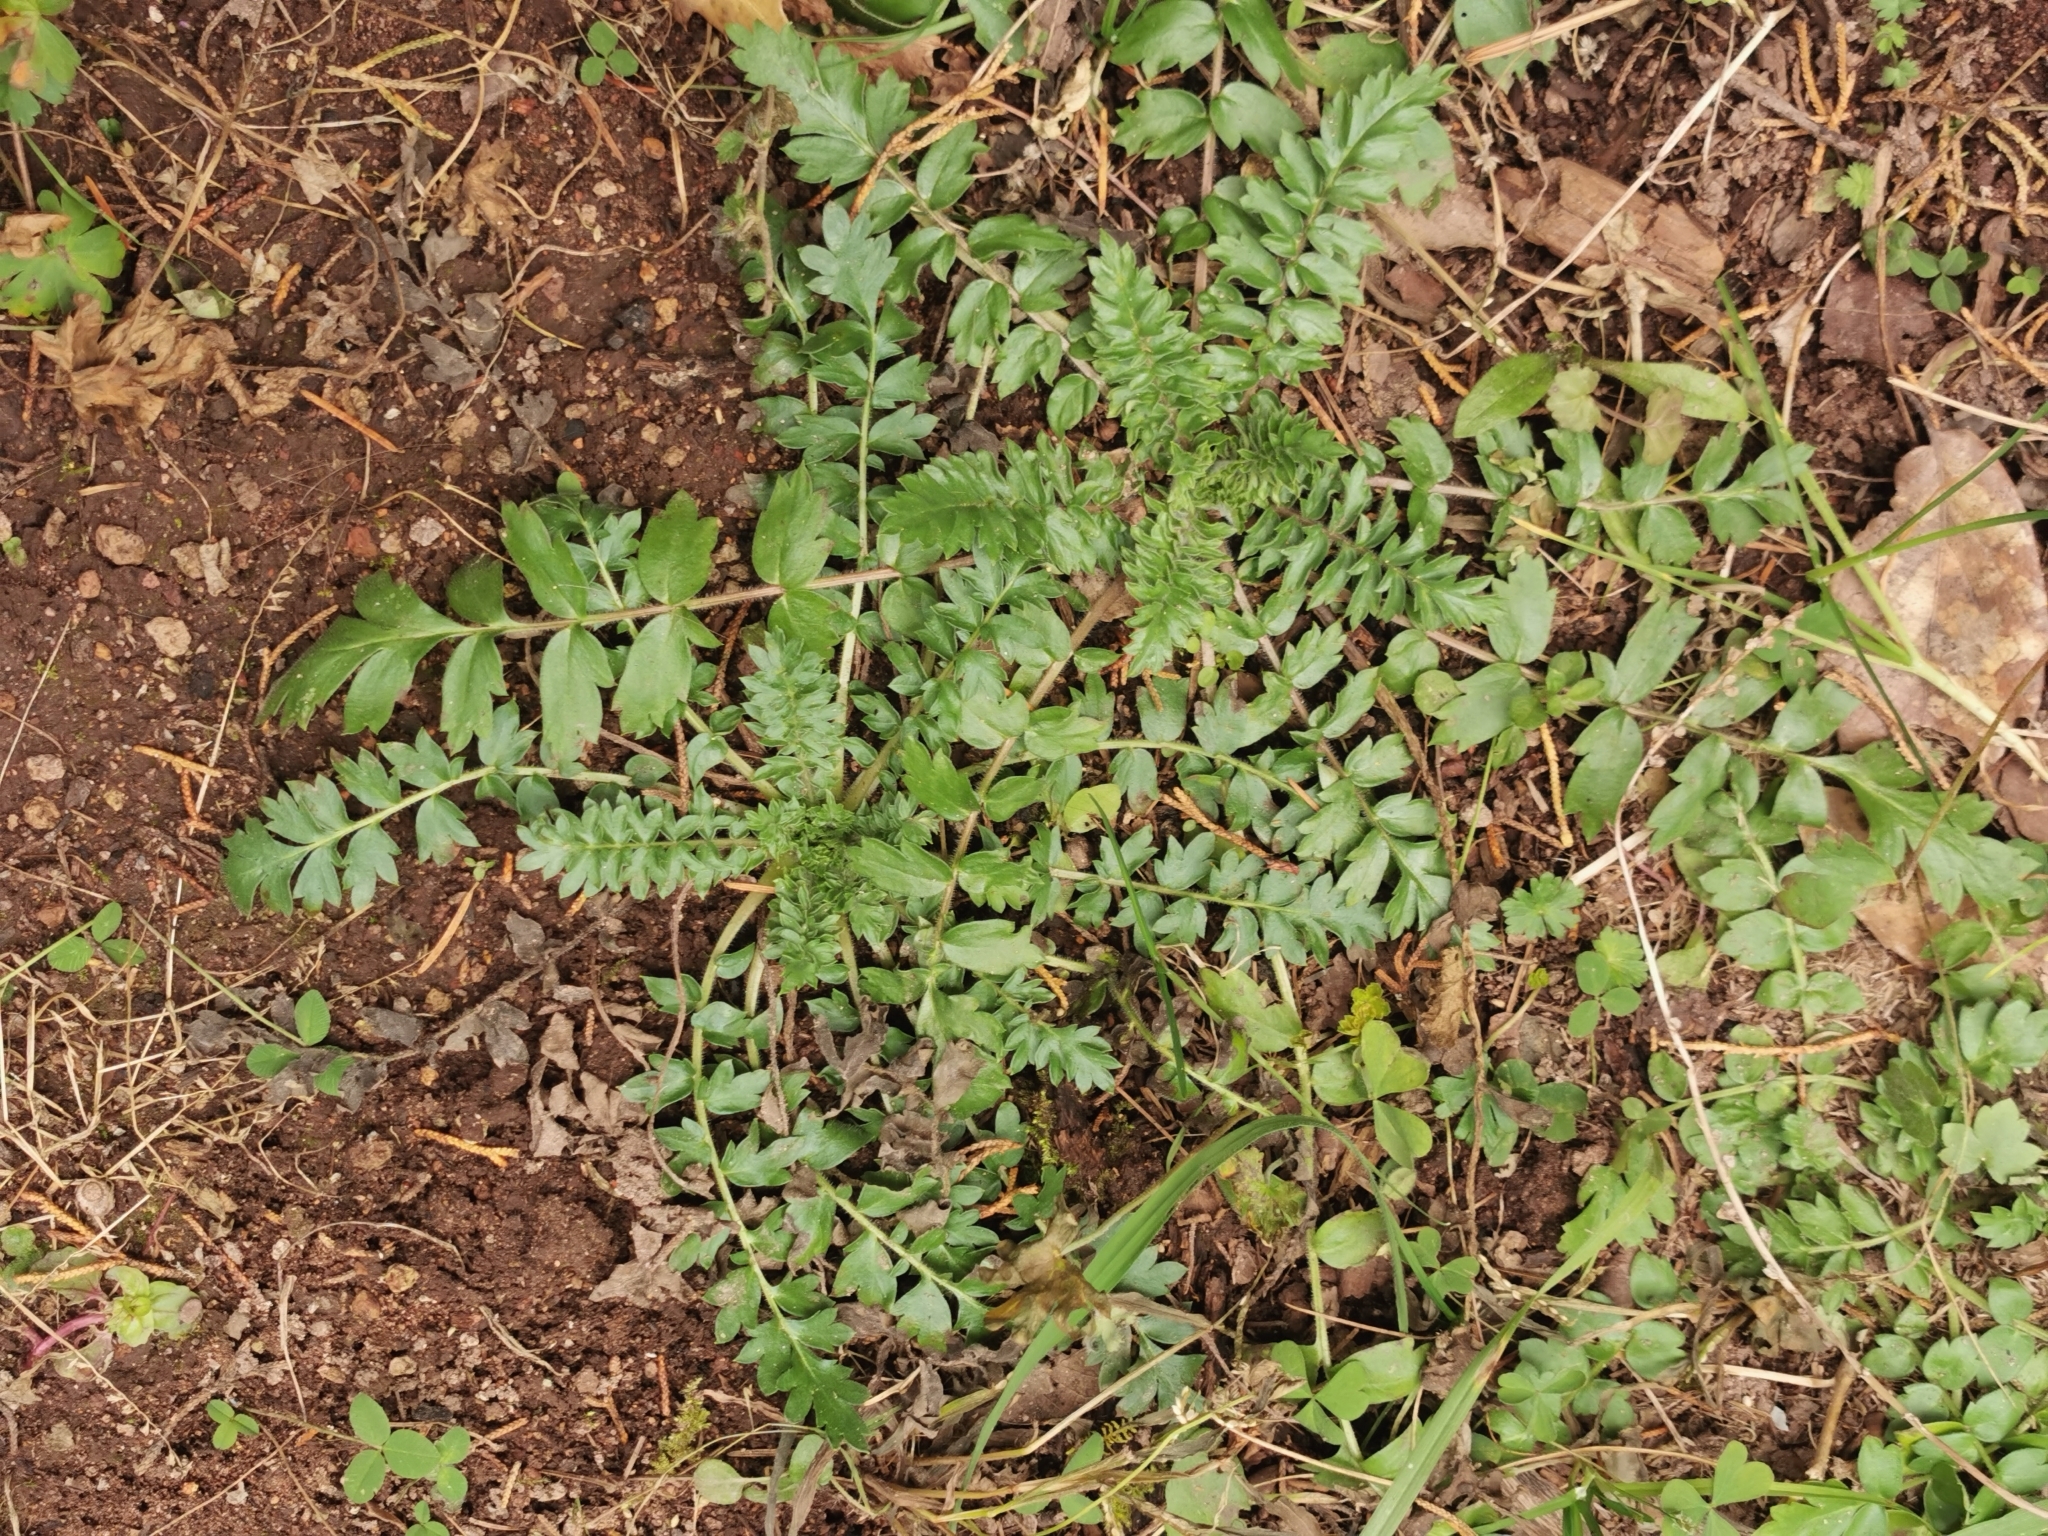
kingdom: Plantae
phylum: Tracheophyta
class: Magnoliopsida
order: Boraginales
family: Hydrophyllaceae
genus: Phacelia
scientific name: Phacelia platycarpa
